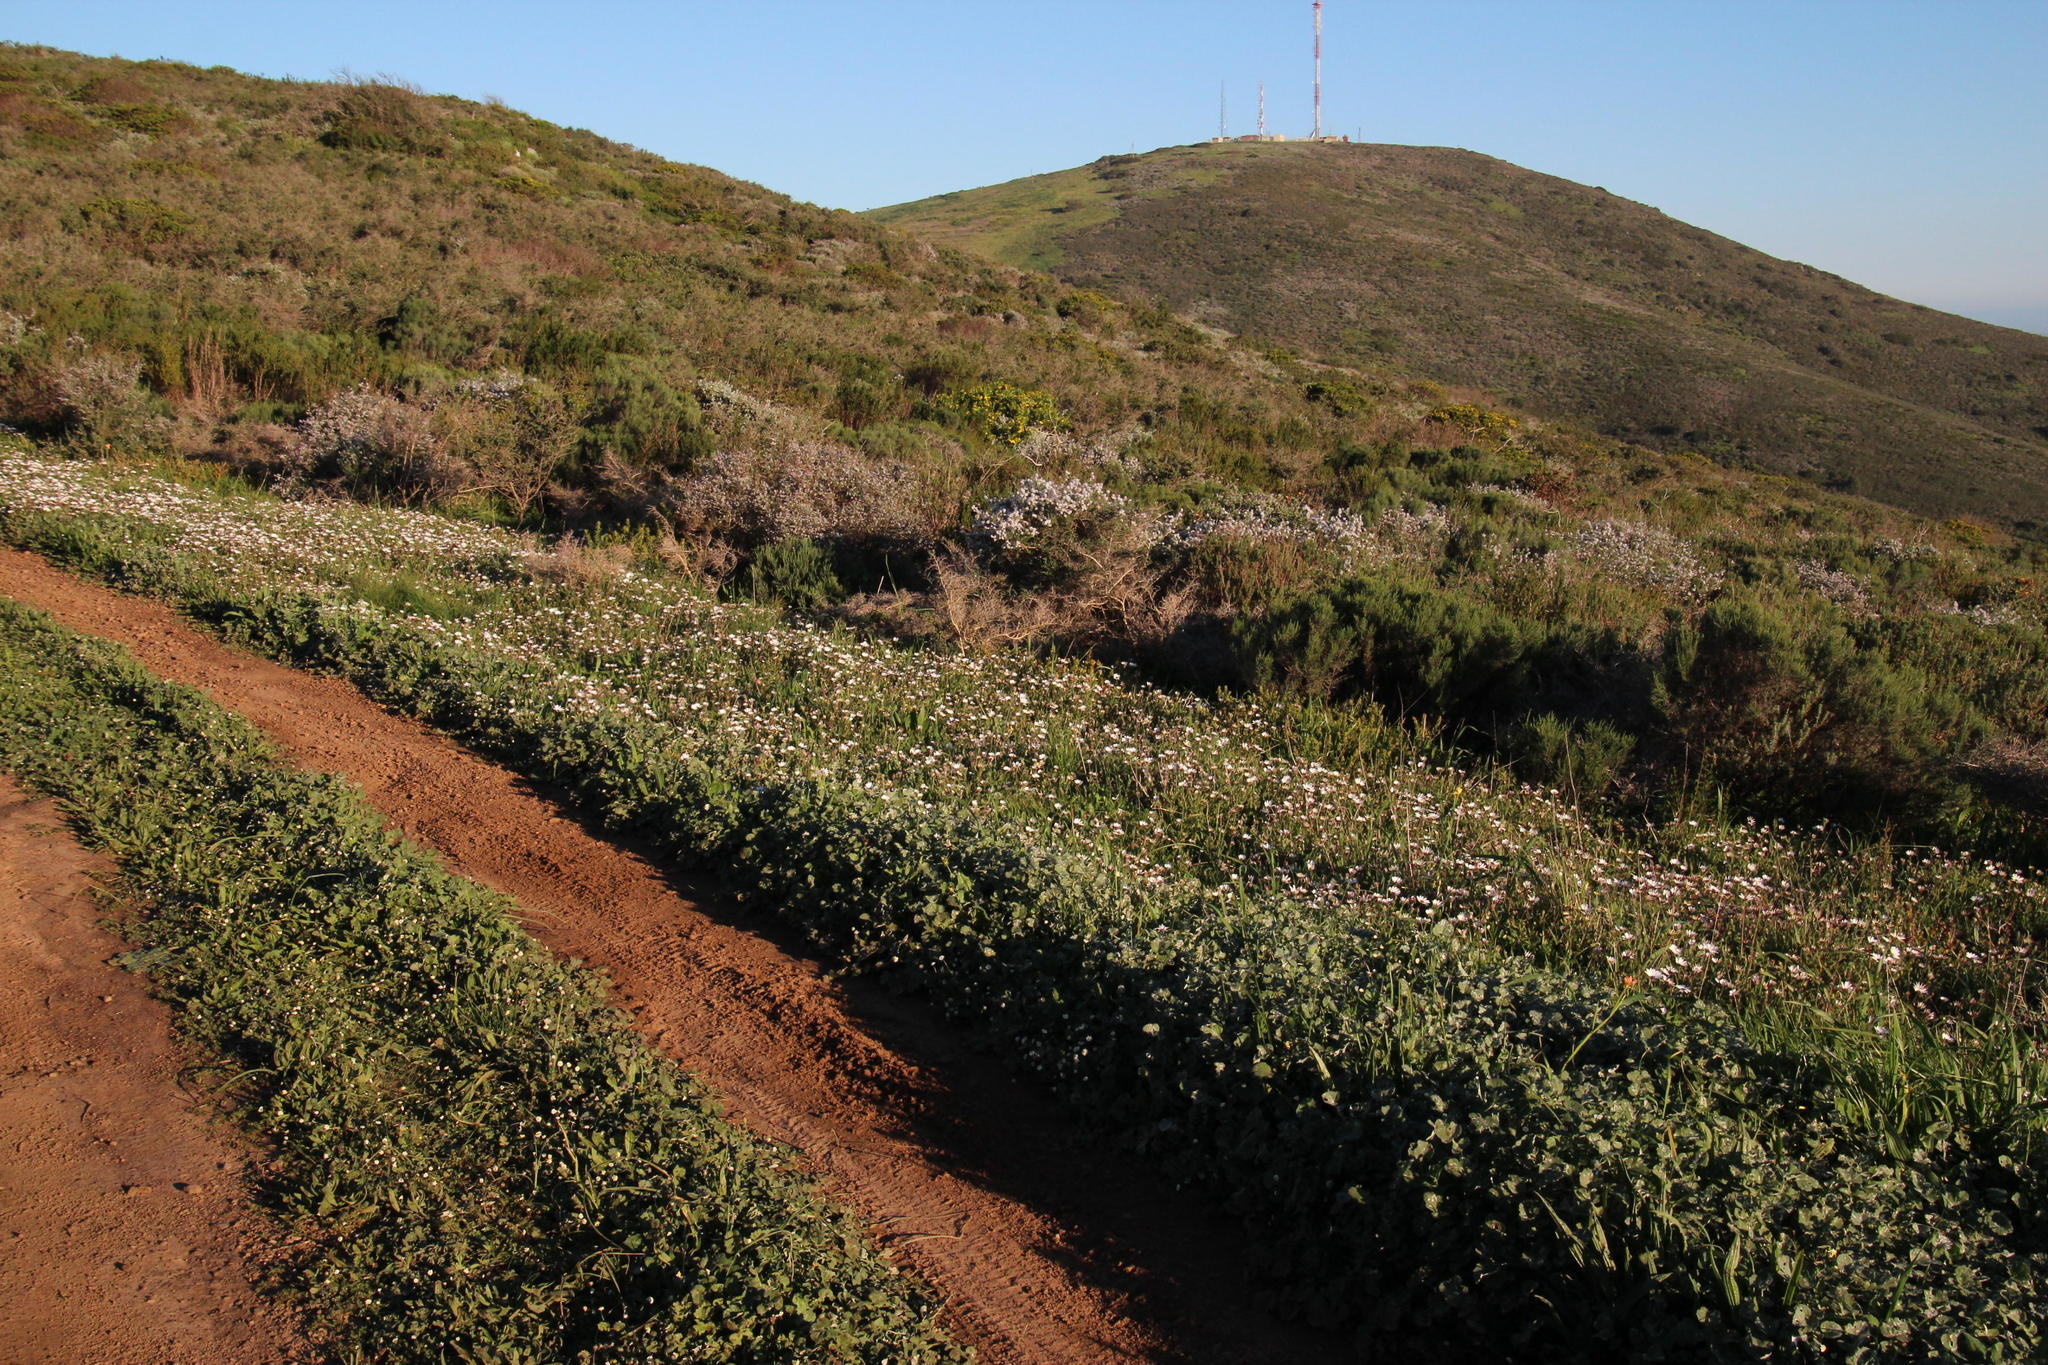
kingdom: Plantae
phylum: Tracheophyta
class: Magnoliopsida
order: Asterales
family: Asteraceae
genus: Dimorphotheca
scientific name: Dimorphotheca pluvialis
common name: Weather prophet
